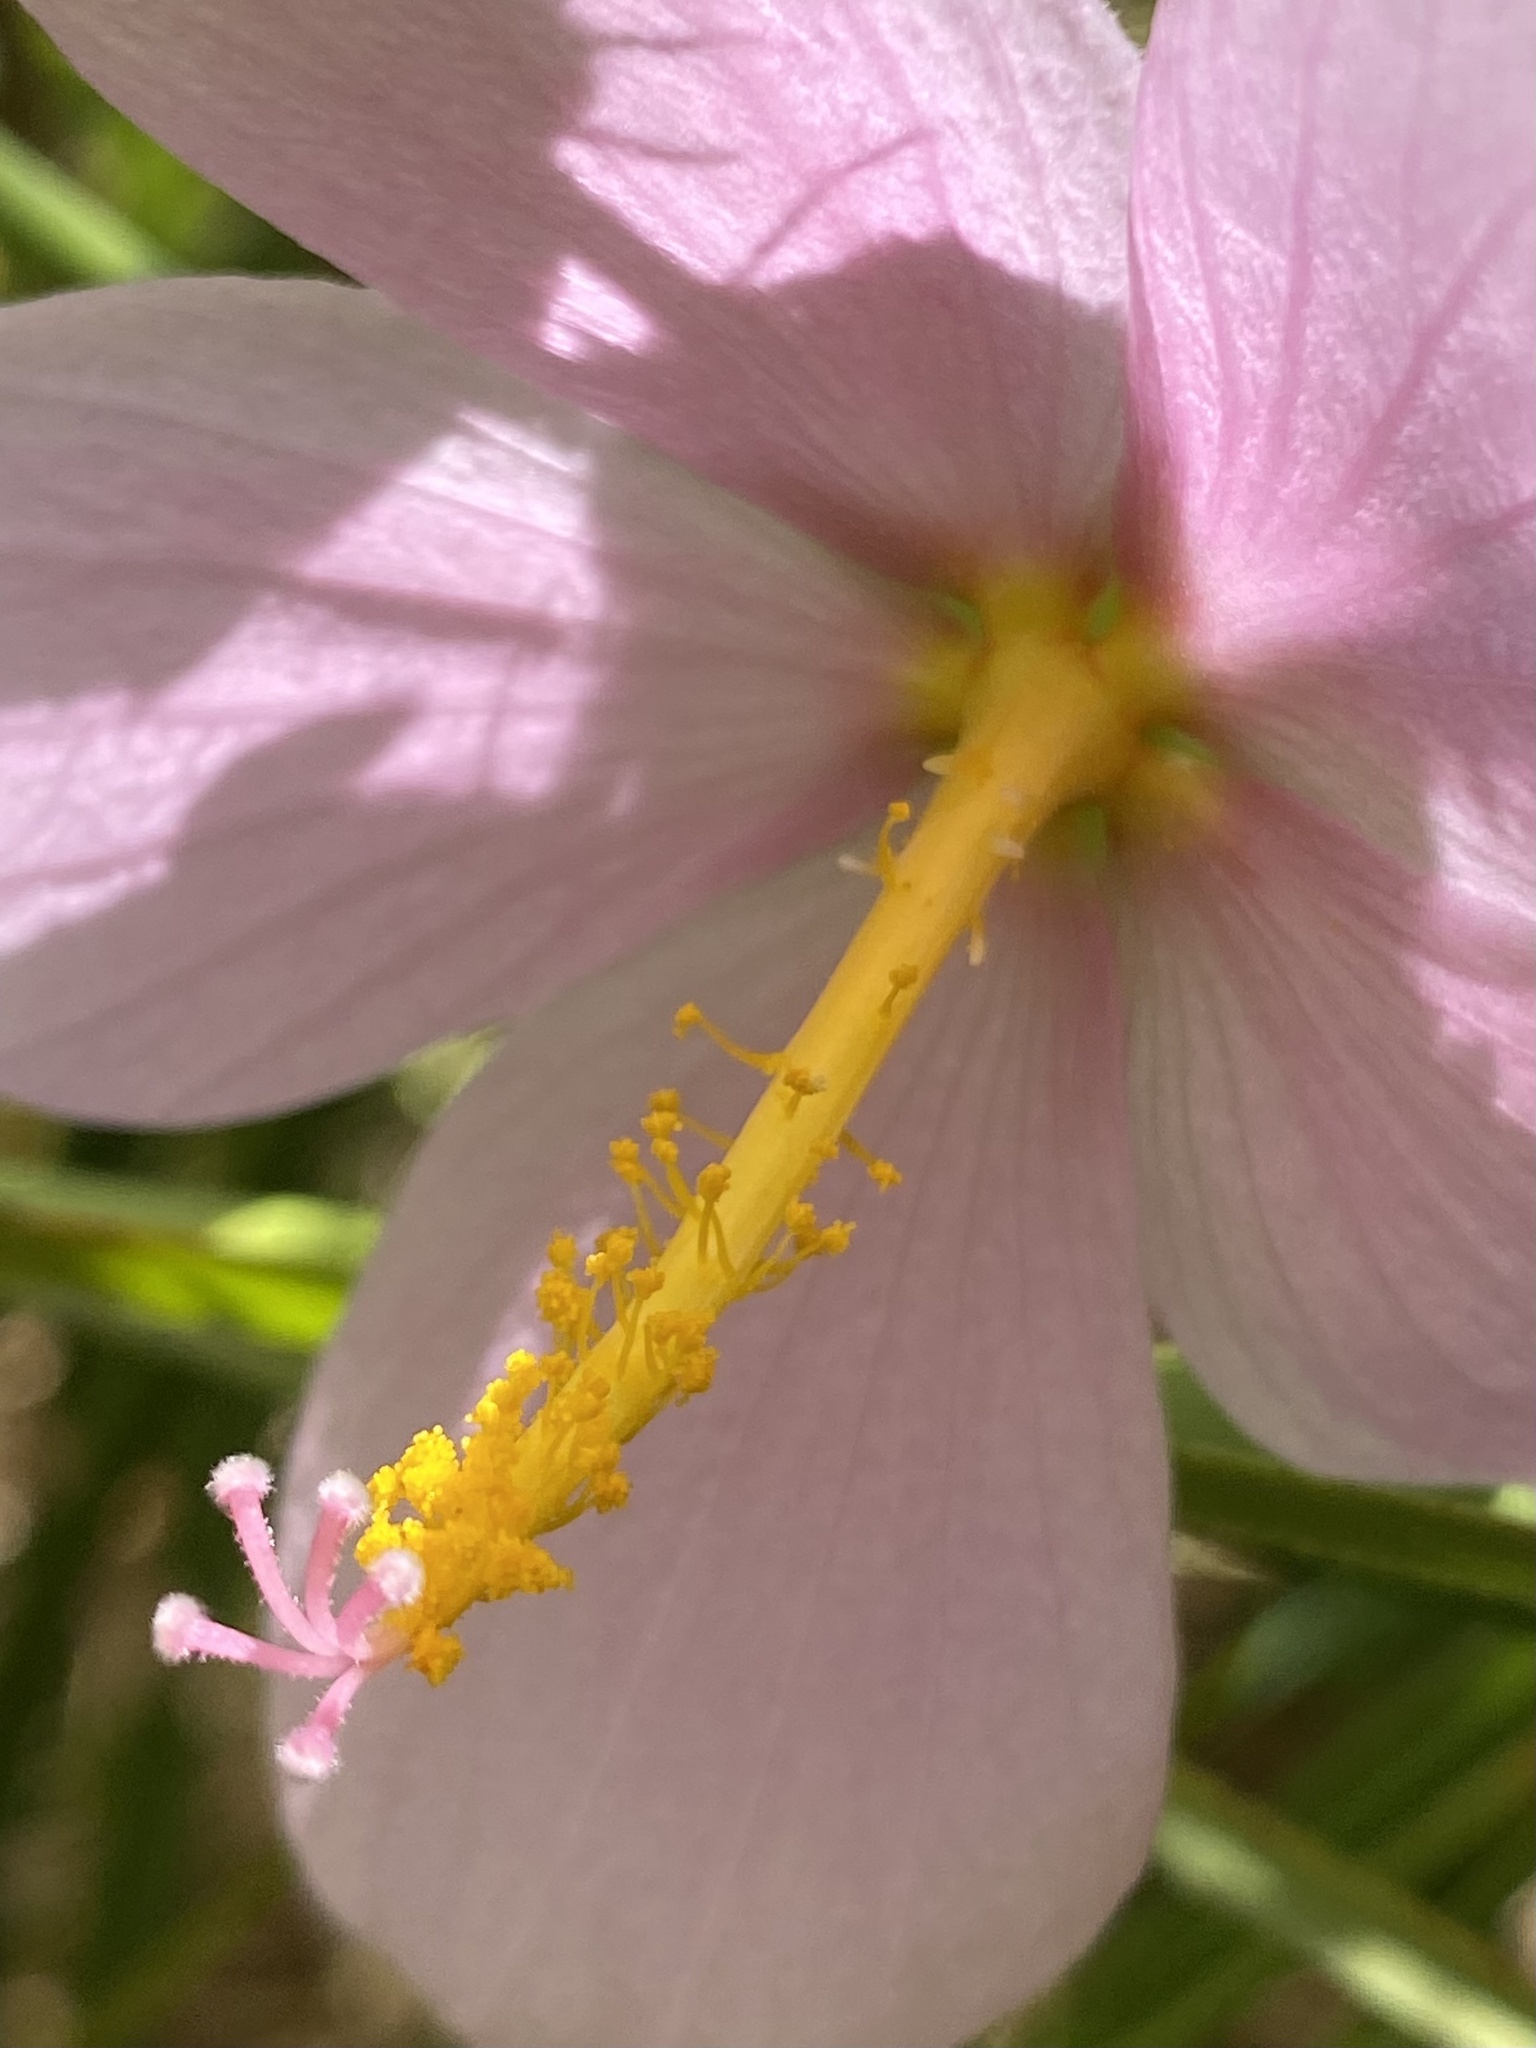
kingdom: Plantae
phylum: Tracheophyta
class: Magnoliopsida
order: Malvales
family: Malvaceae
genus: Kosteletzkya
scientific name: Kosteletzkya pentacarpos
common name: Virginia saltmarsh mallow
